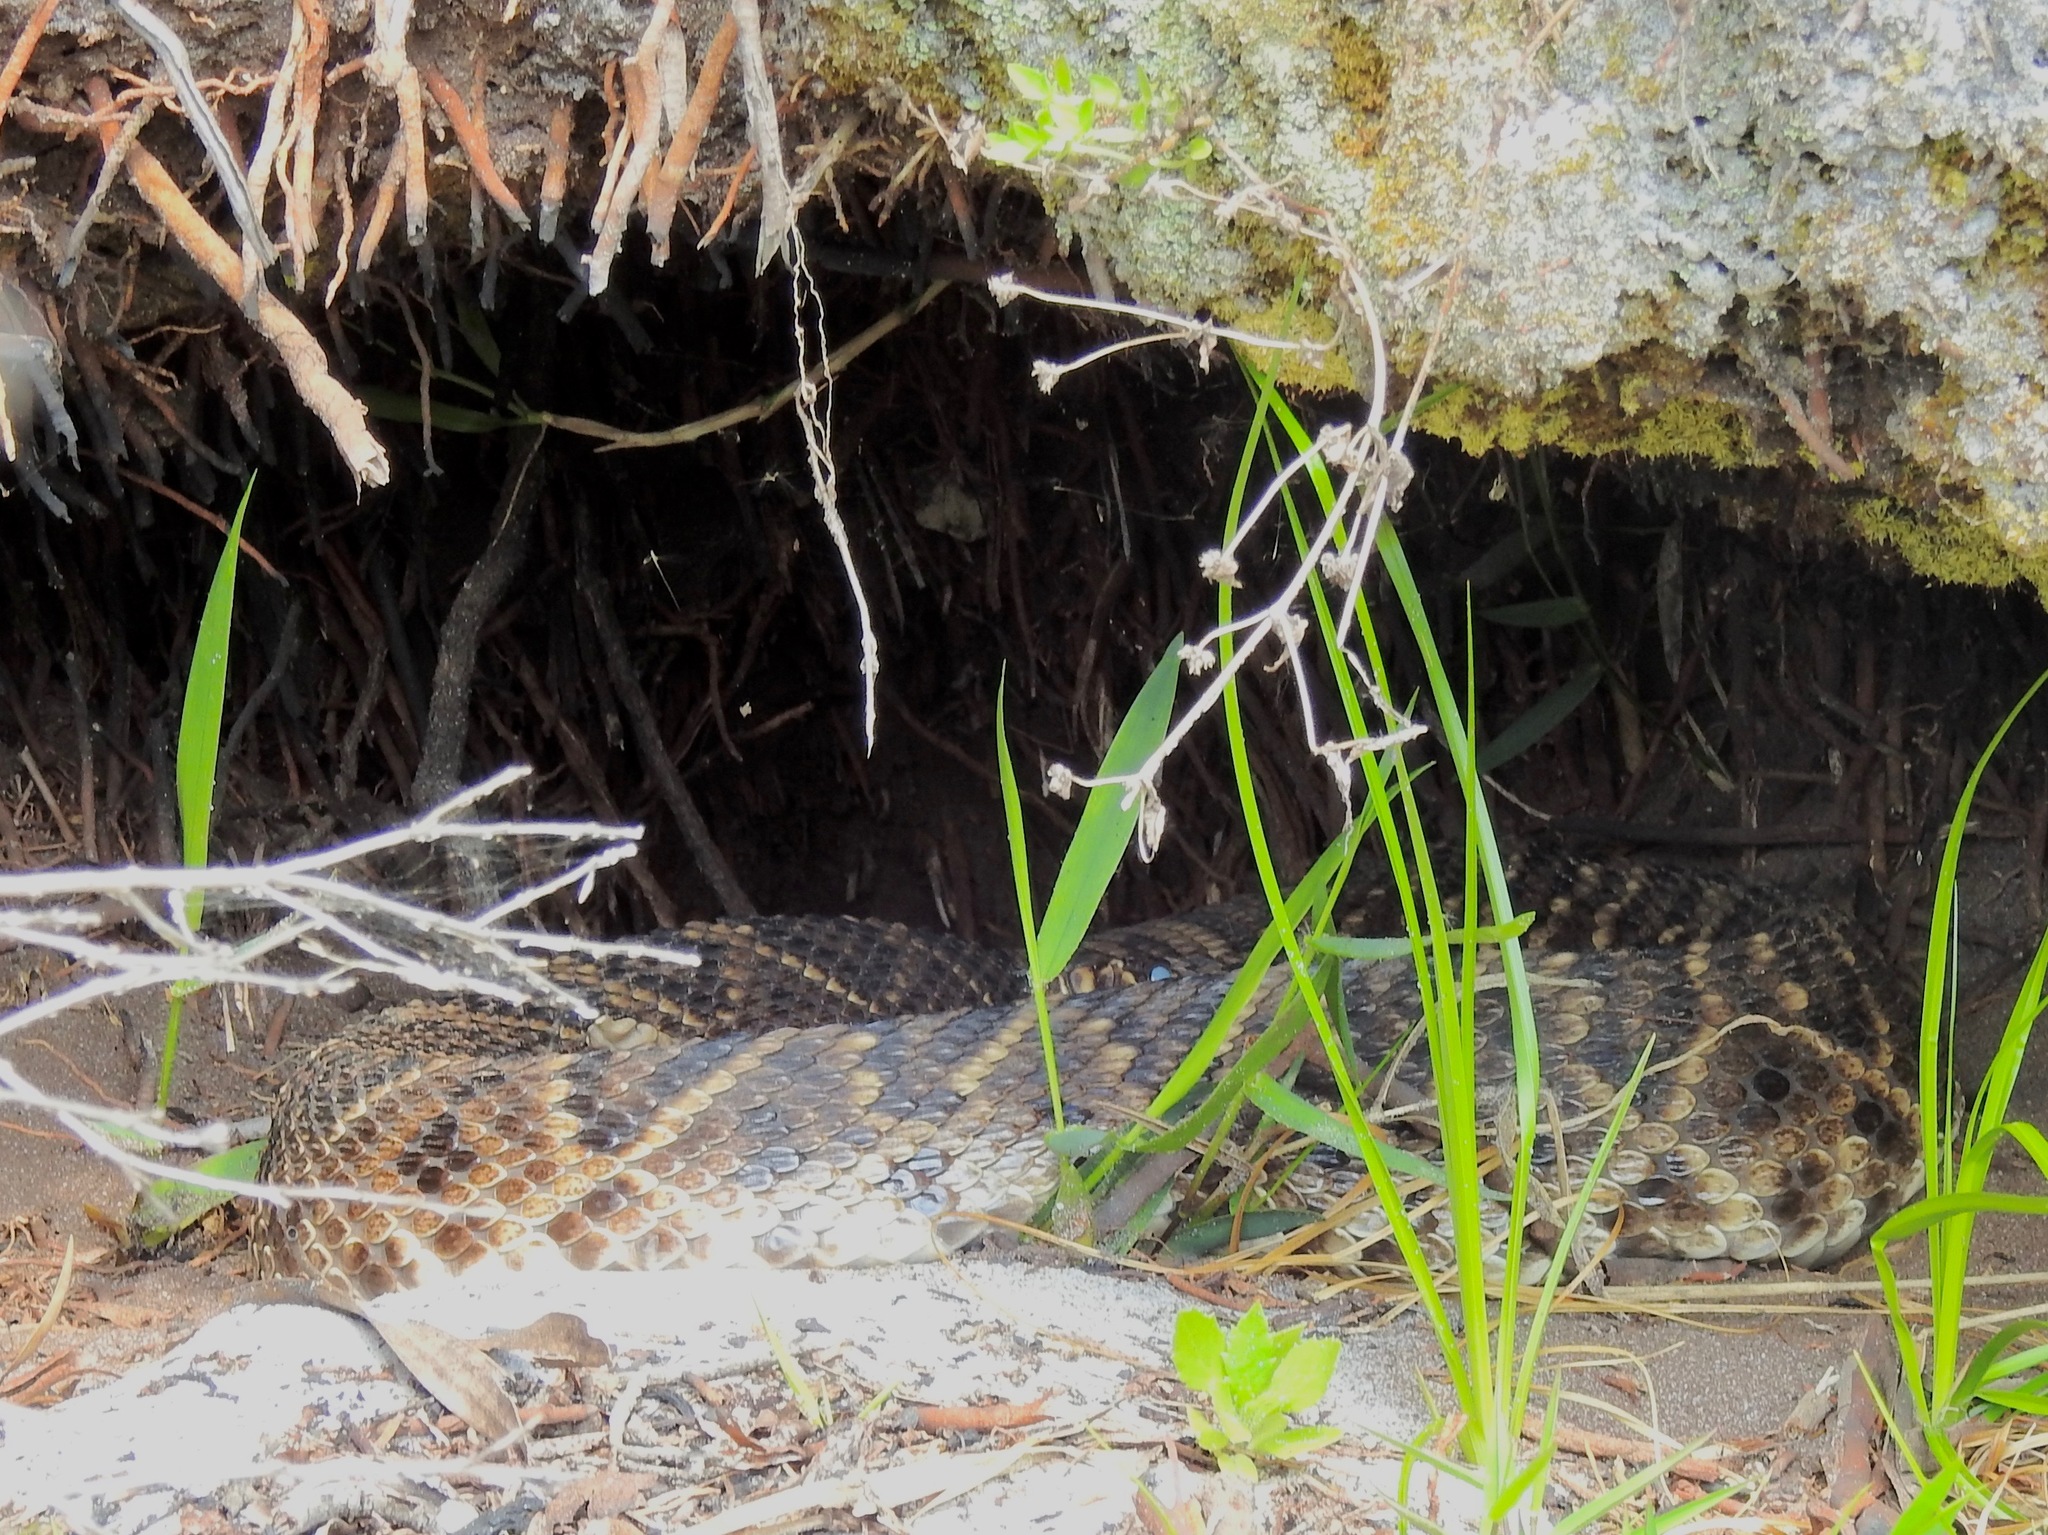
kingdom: Animalia
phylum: Chordata
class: Squamata
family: Viperidae
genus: Crotalus
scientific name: Crotalus adamanteus
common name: Eastern diamondback rattlesnake
